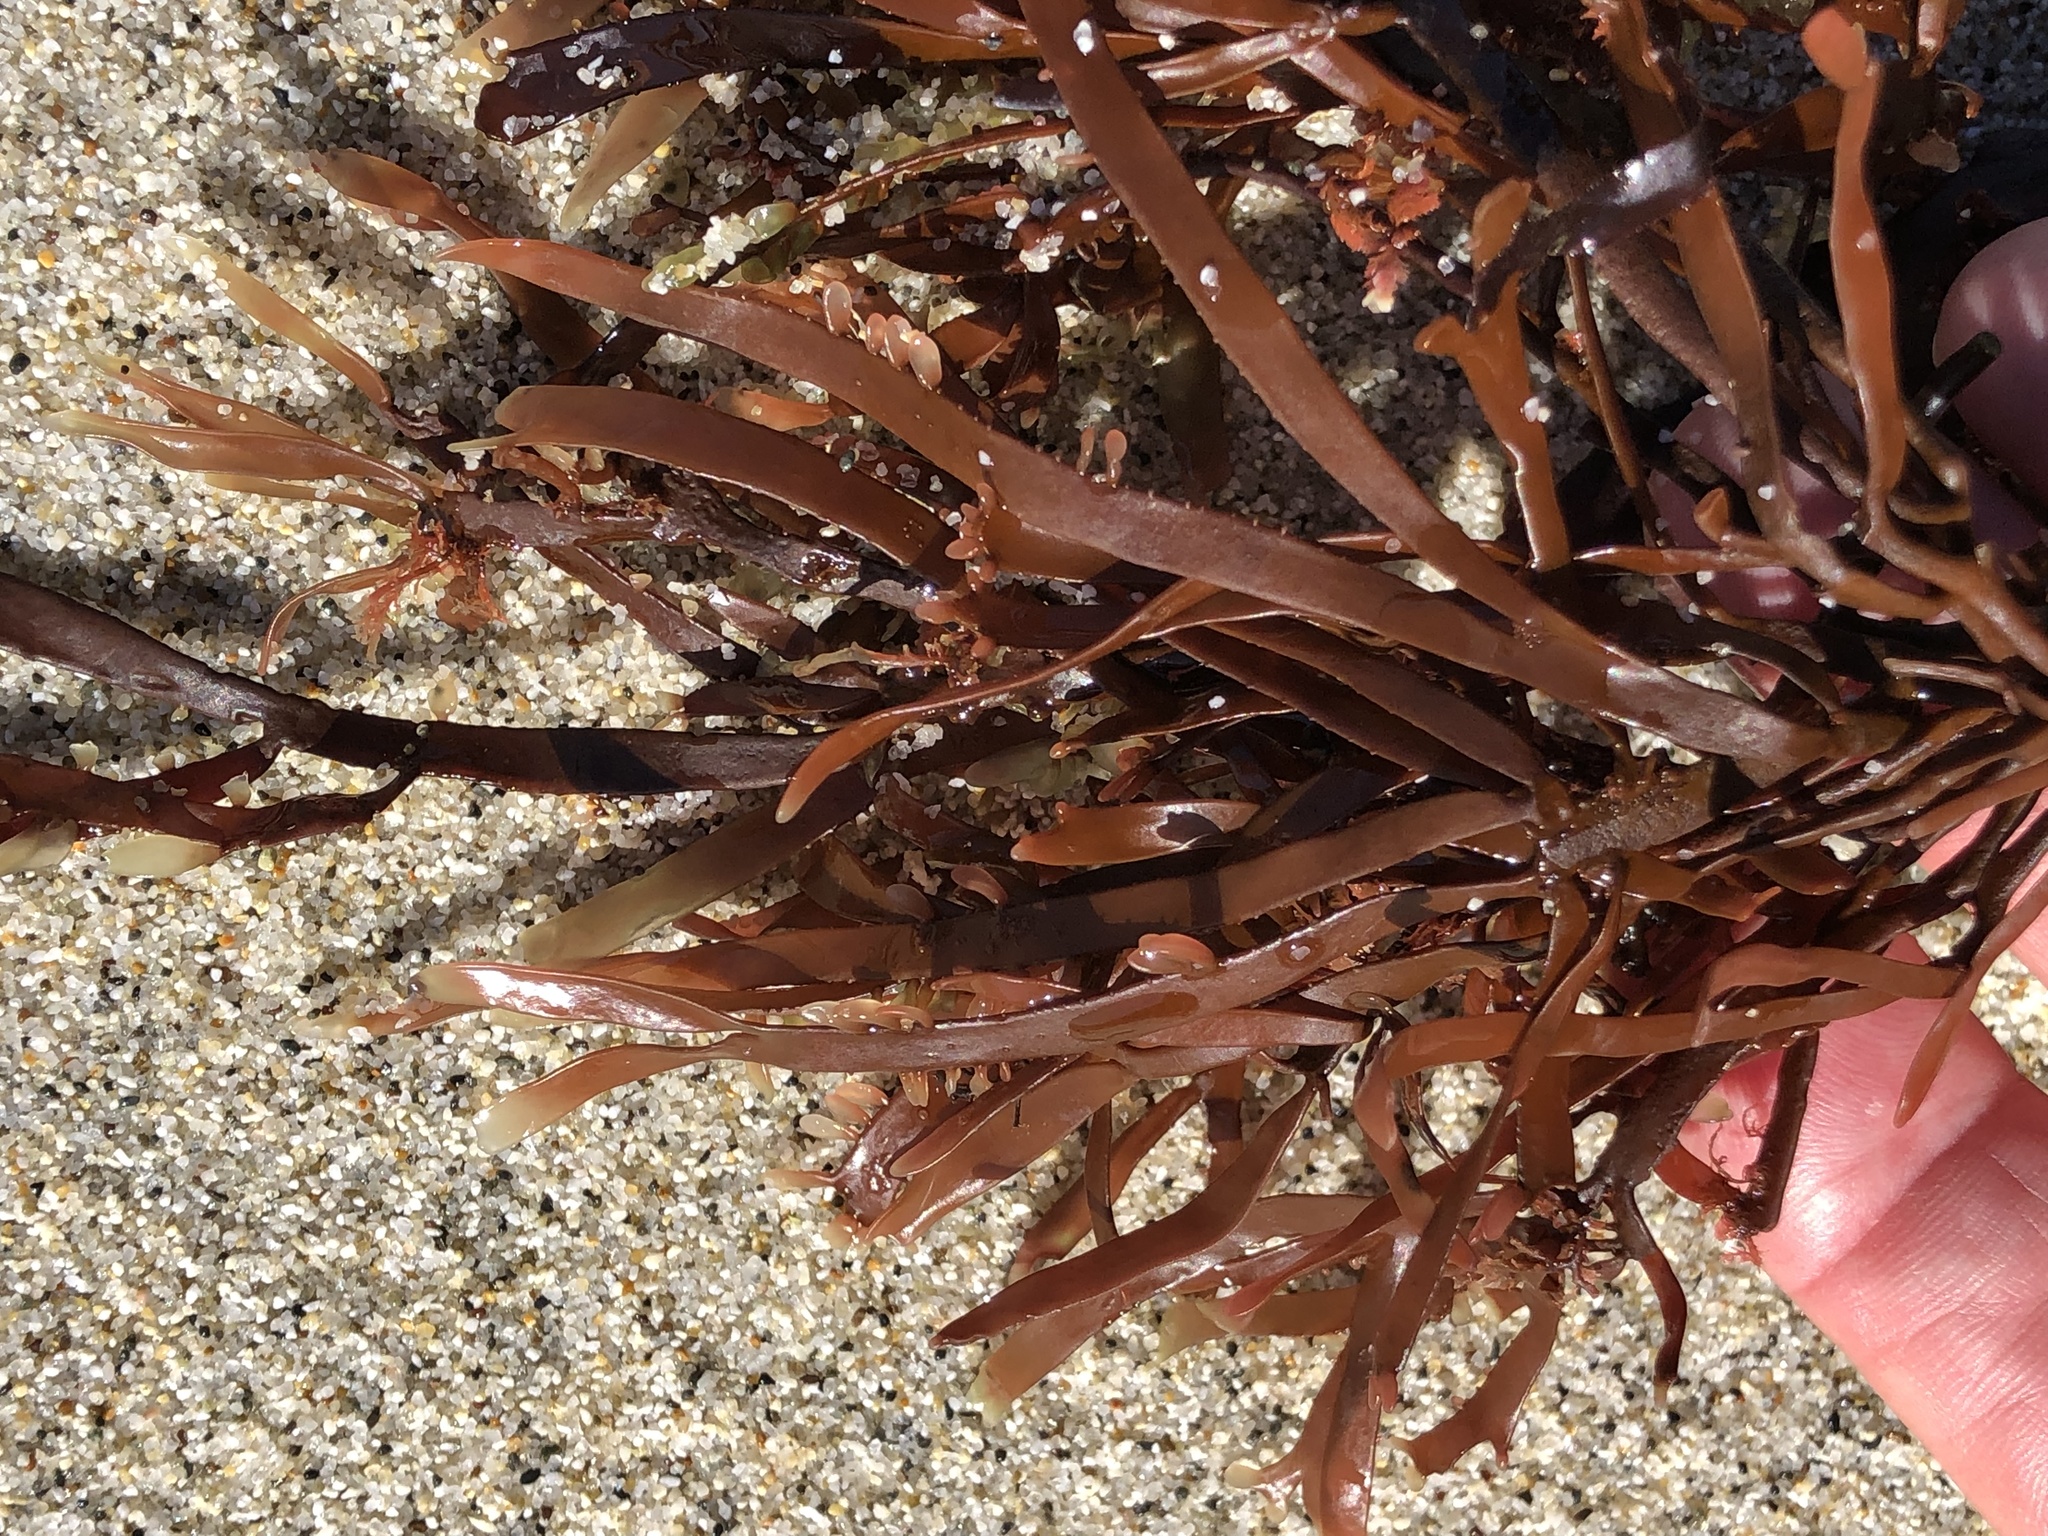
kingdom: Plantae
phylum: Rhodophyta
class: Florideophyceae
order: Halymeniales
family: Halymeniaceae
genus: Grateloupia
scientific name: Grateloupia Prionitis lanceolata
